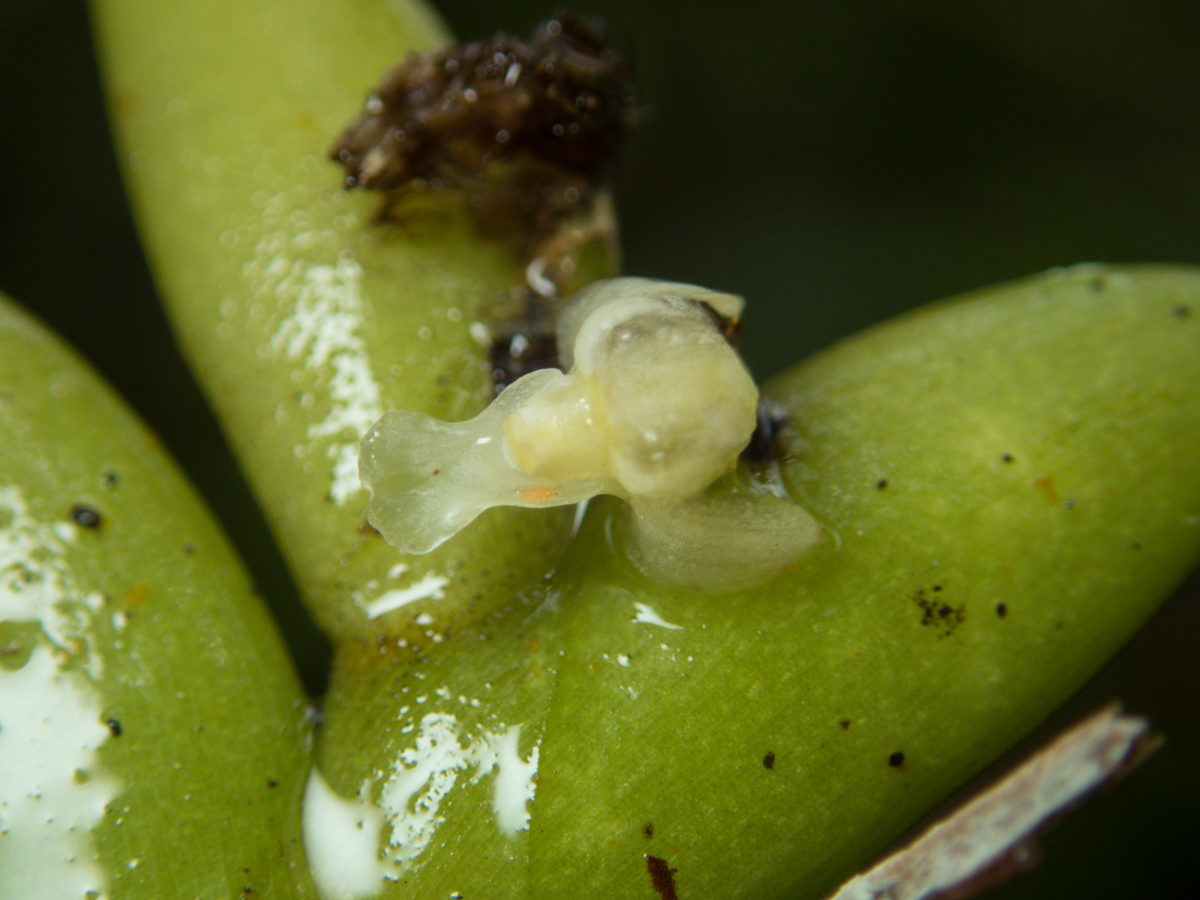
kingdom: Plantae
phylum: Tracheophyta
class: Liliopsida
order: Asparagales
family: Orchidaceae
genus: Dendrobium
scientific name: Dendrobium aloifolium
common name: Aloe-like dendrobium
